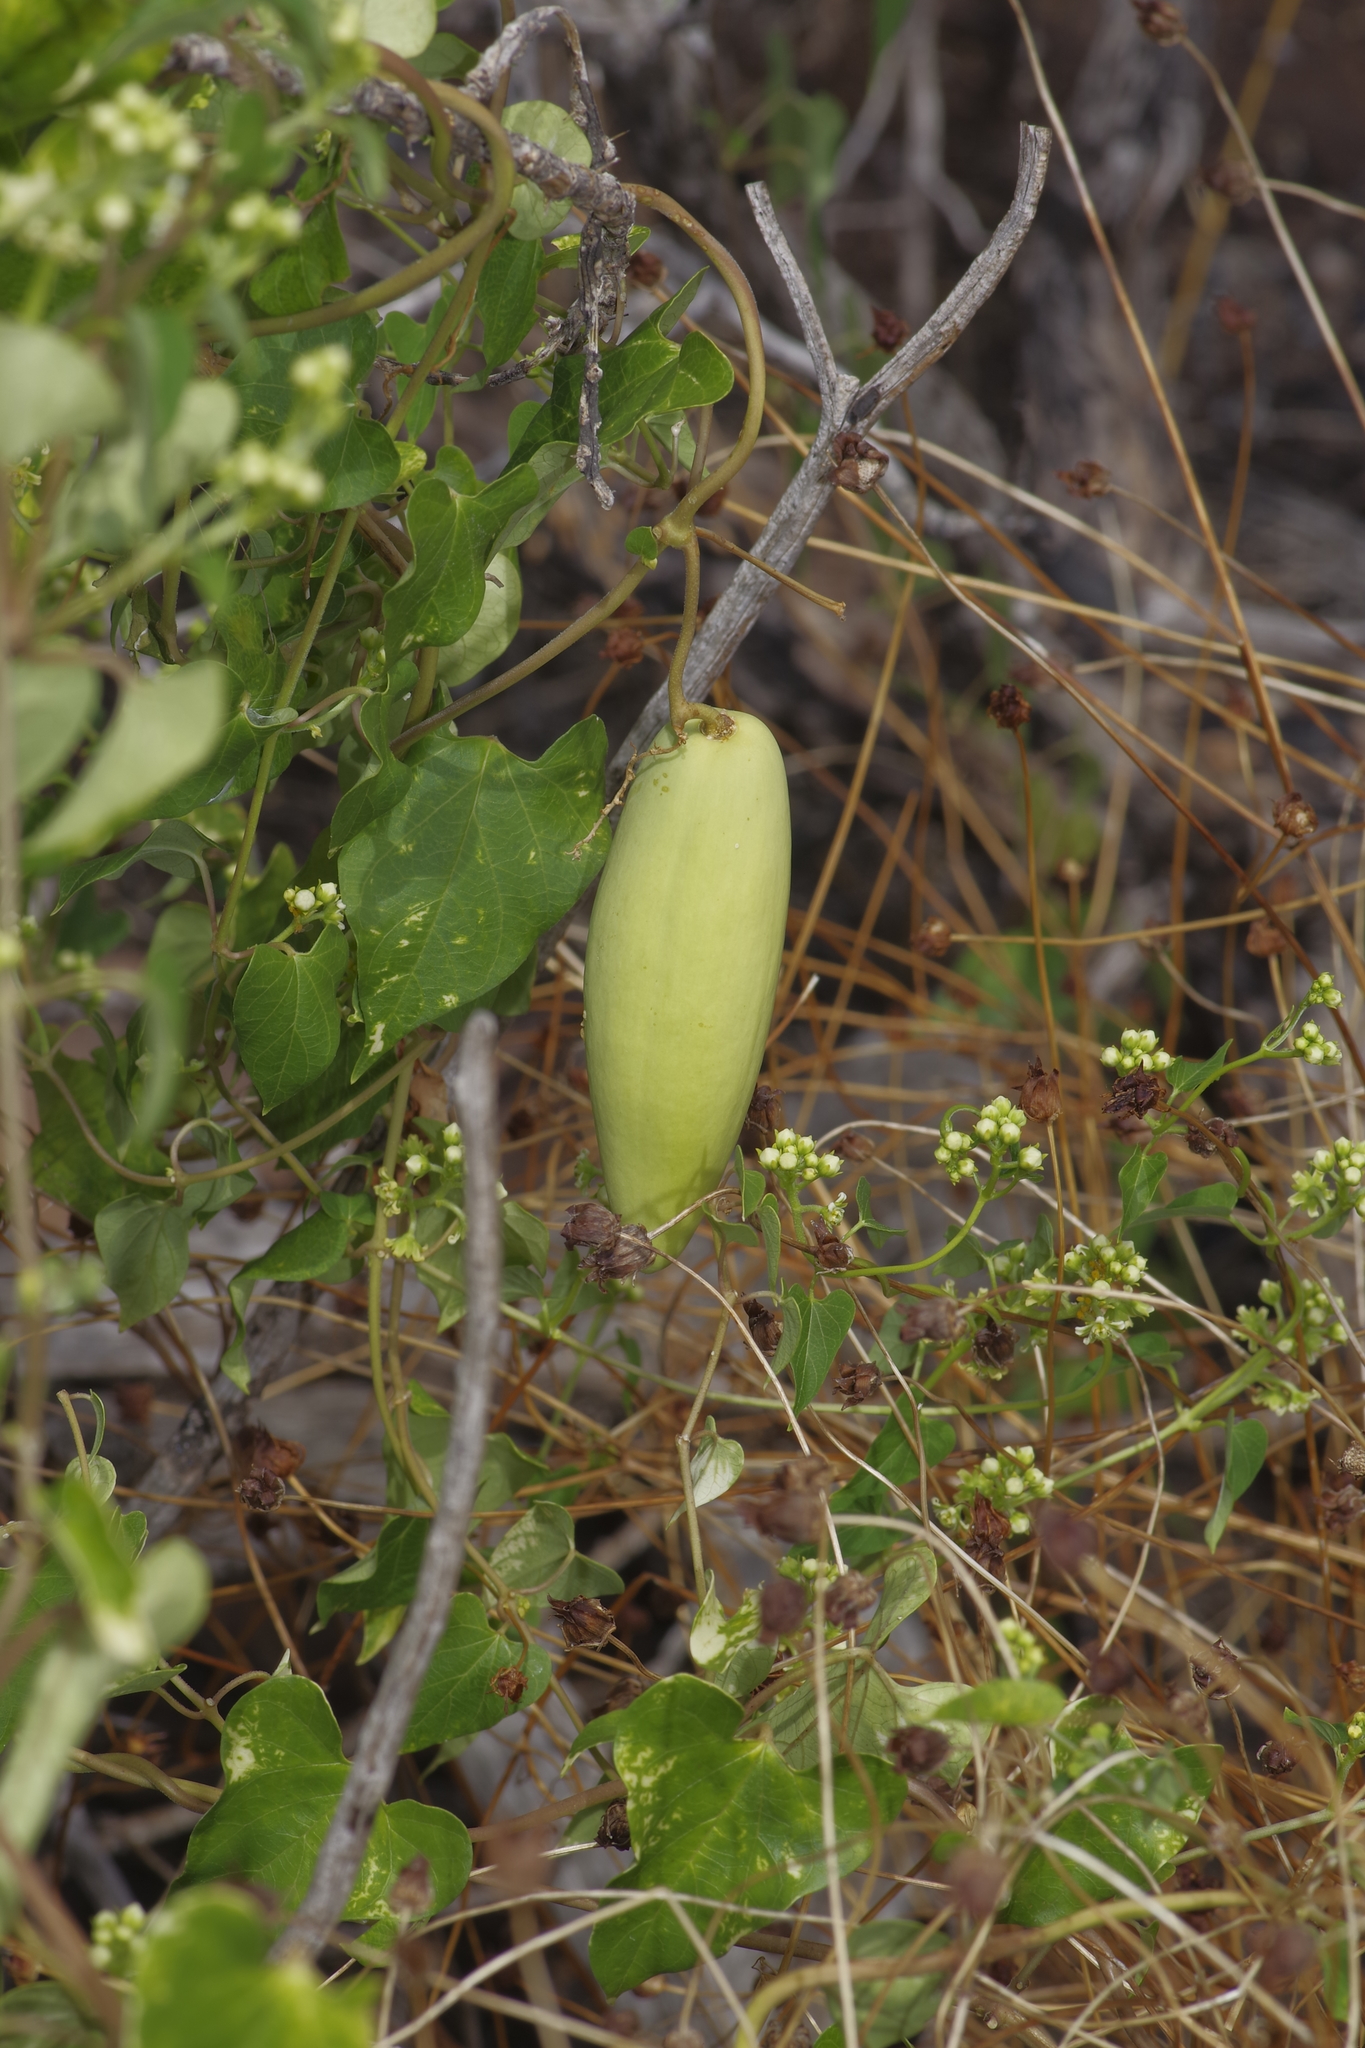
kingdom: Plantae
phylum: Tracheophyta
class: Magnoliopsida
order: Gentianales
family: Apocynaceae
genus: Cynanchum
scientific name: Cynanchum racemosum
